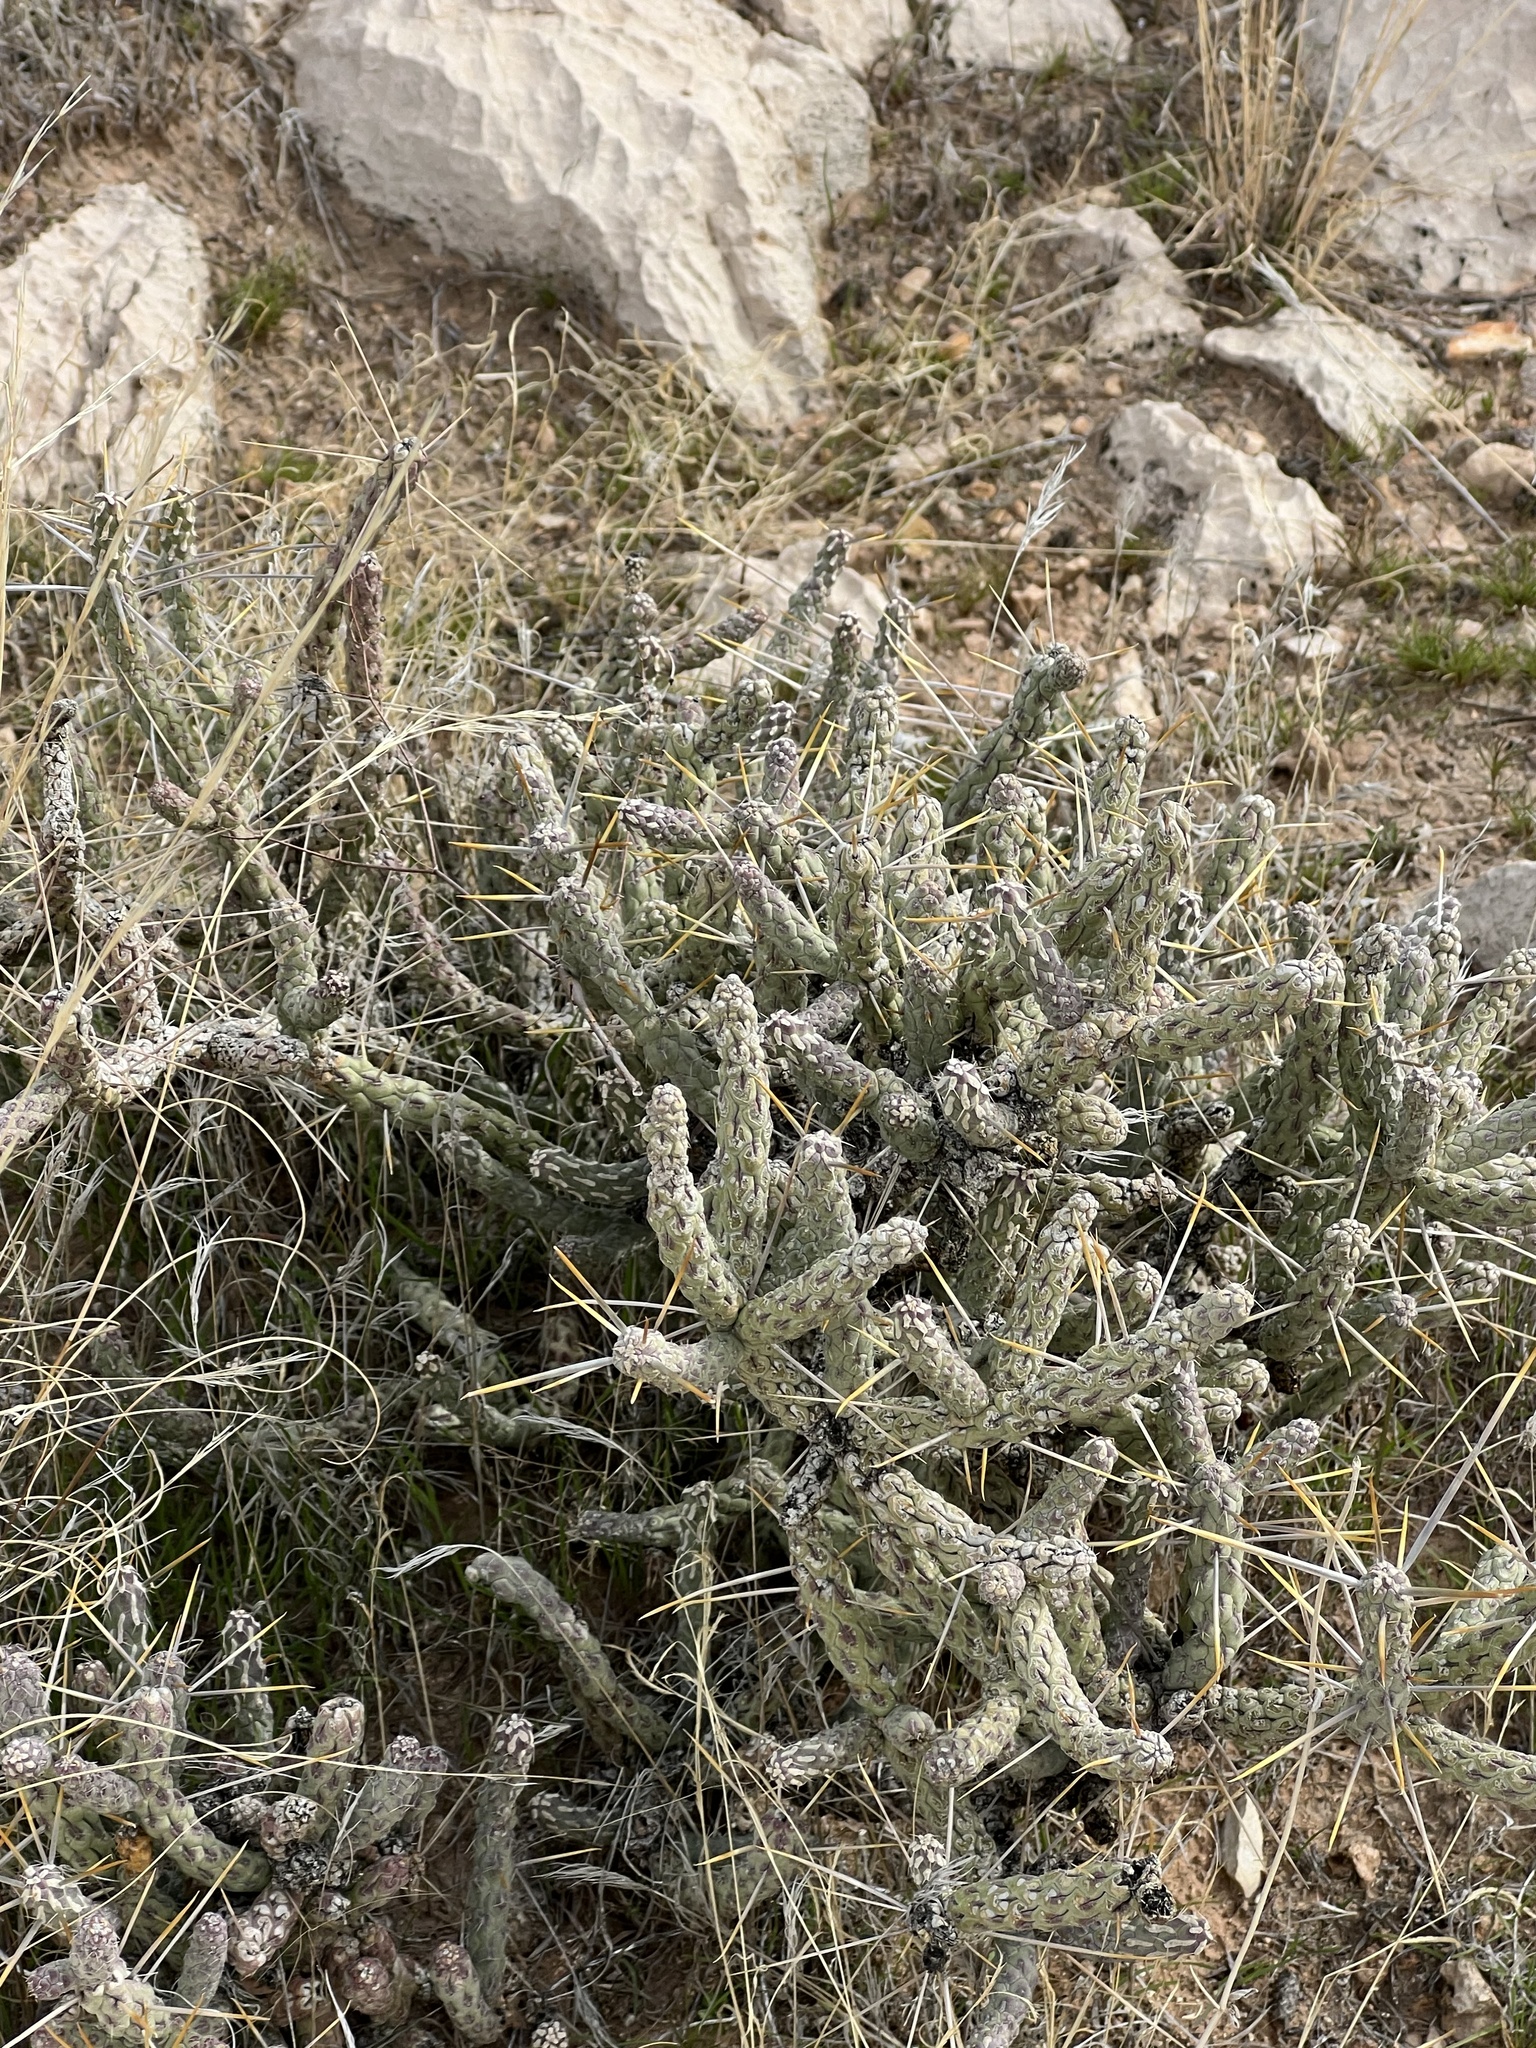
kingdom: Plantae
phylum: Tracheophyta
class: Magnoliopsida
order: Caryophyllales
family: Cactaceae
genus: Cylindropuntia
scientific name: Cylindropuntia ramosissima
